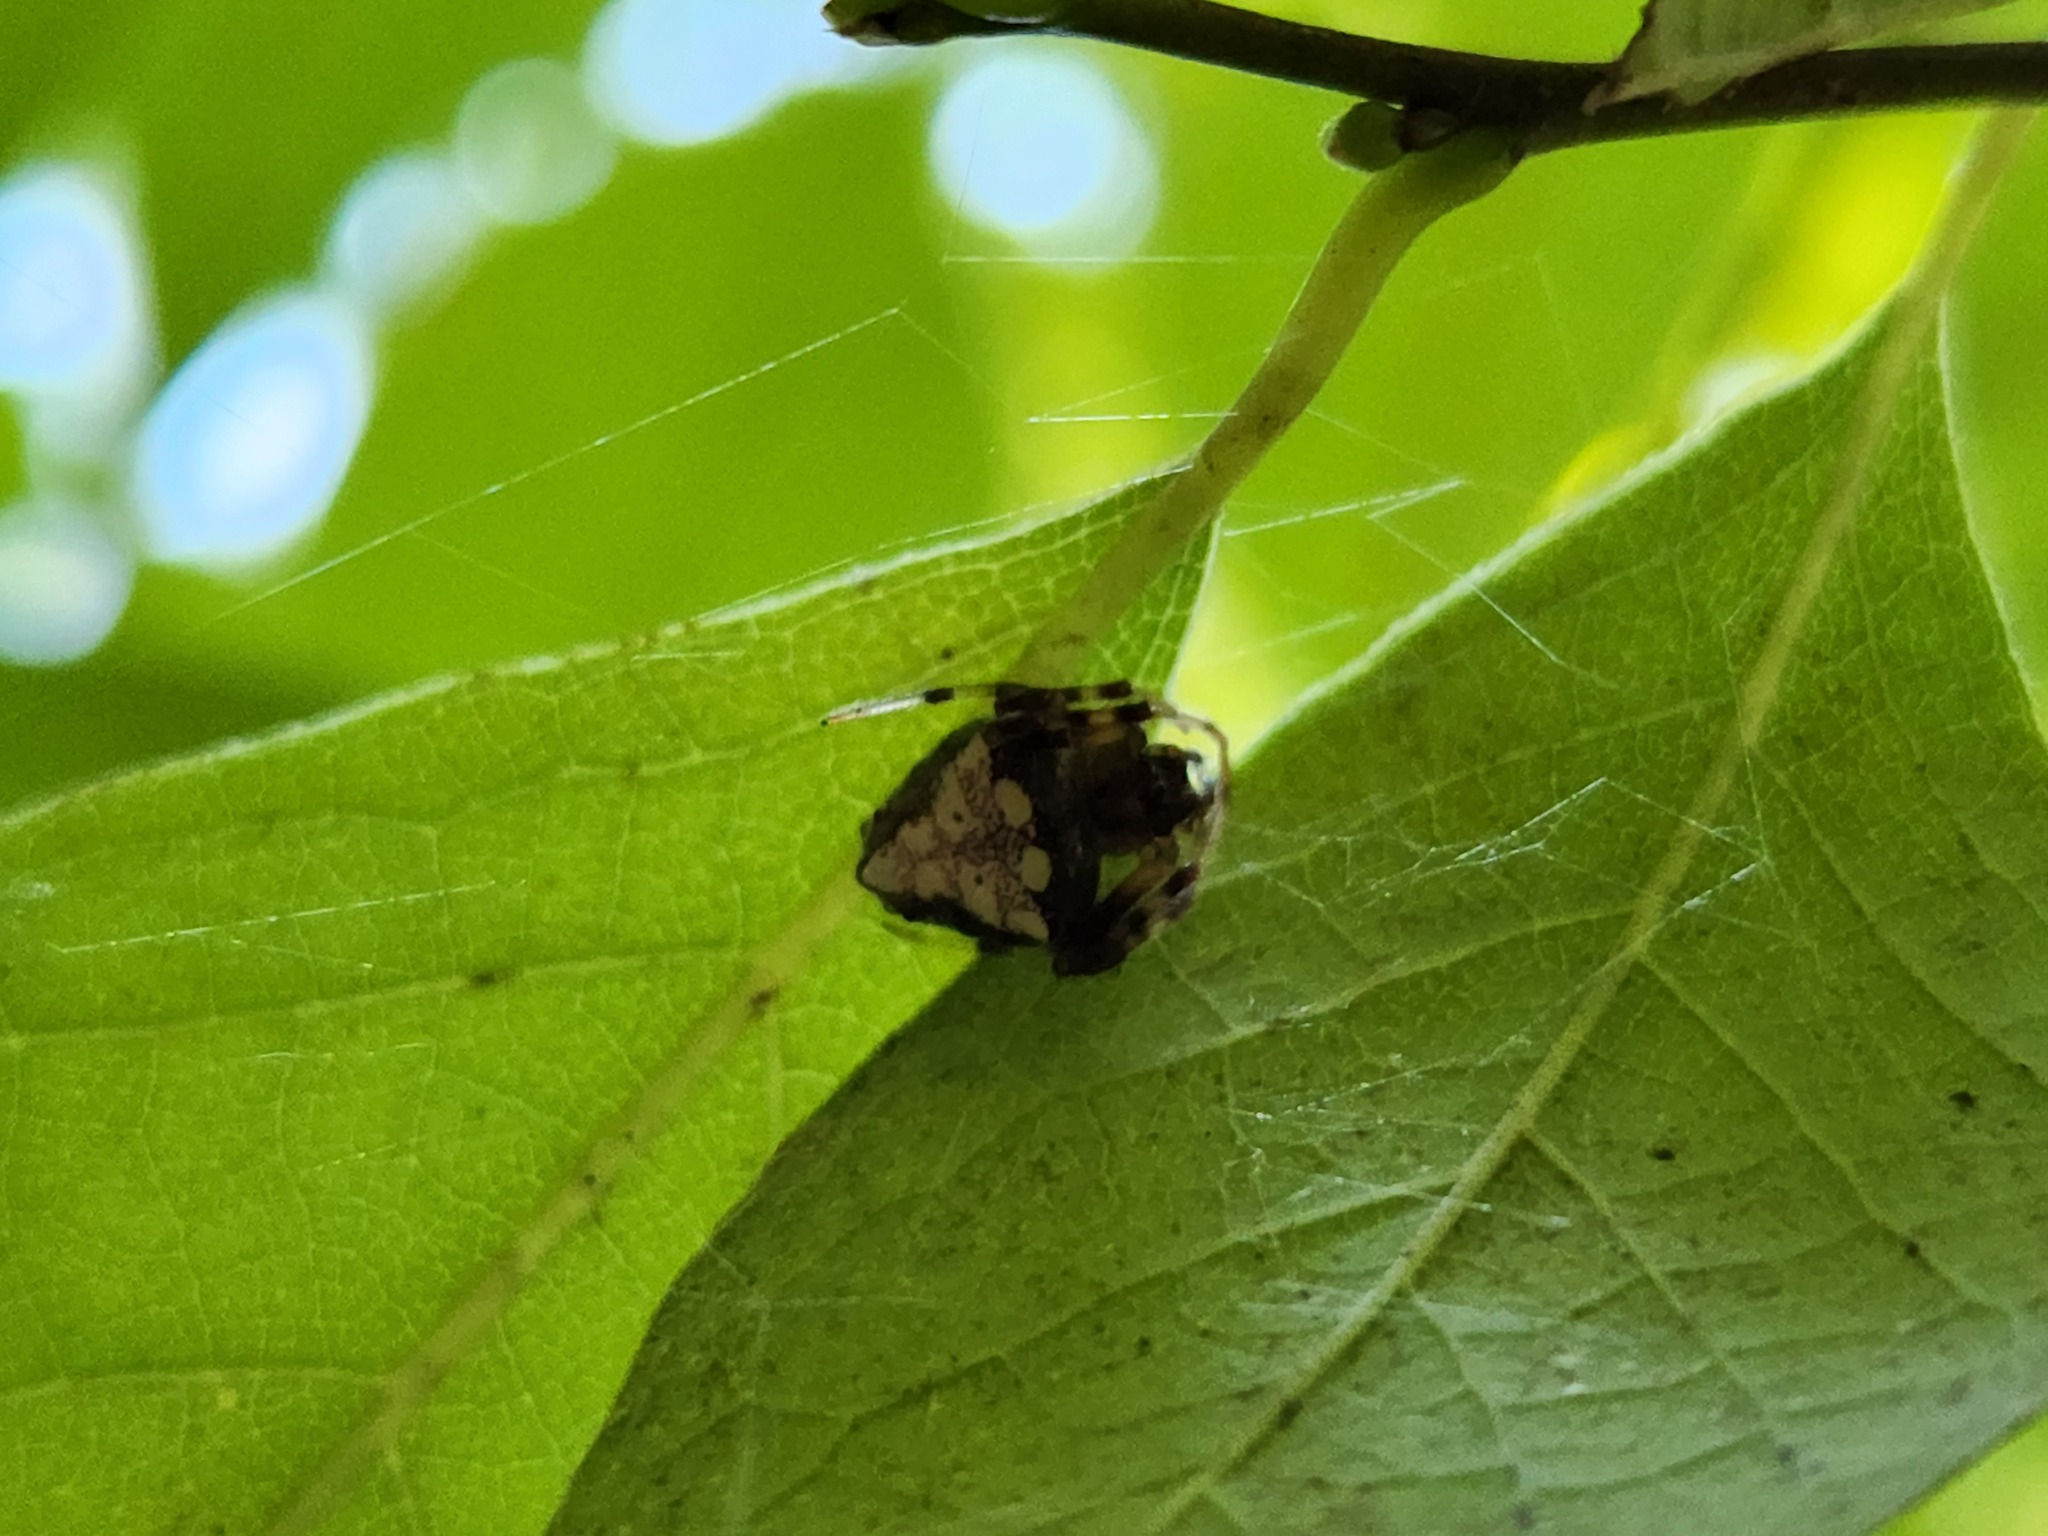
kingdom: Animalia
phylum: Arthropoda
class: Arachnida
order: Araneae
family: Araneidae
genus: Verrucosa
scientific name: Verrucosa arenata
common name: Orb weavers
